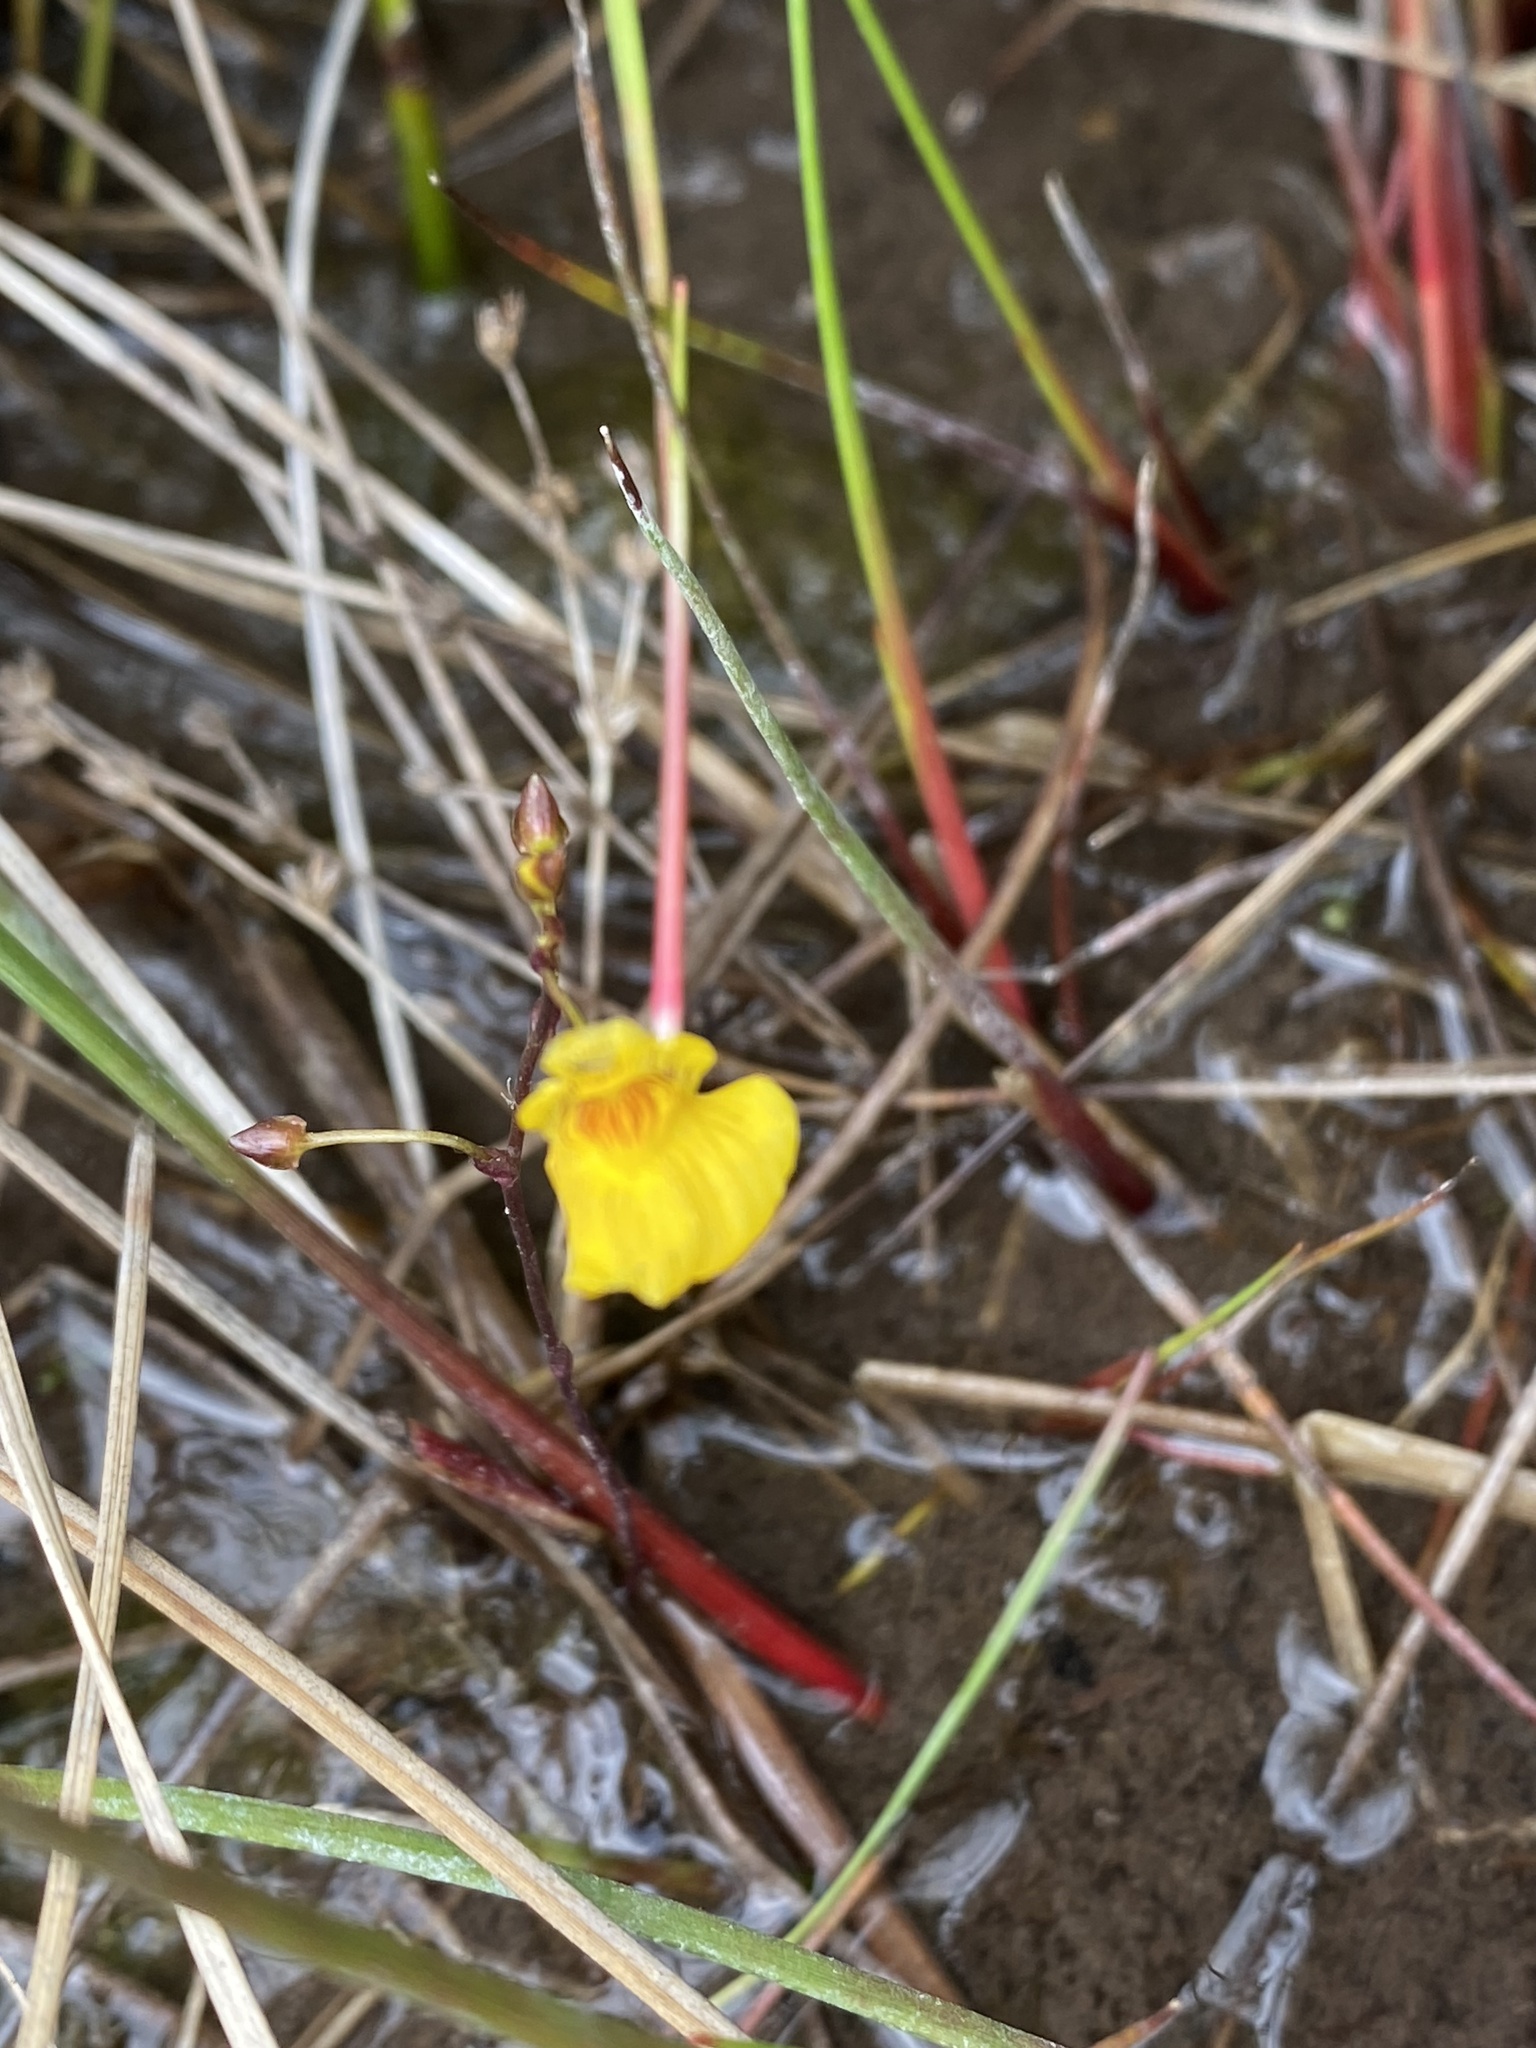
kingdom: Plantae
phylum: Tracheophyta
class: Magnoliopsida
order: Lamiales
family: Lentibulariaceae
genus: Utricularia
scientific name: Utricularia ochroleuca
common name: Pale bladderwort
